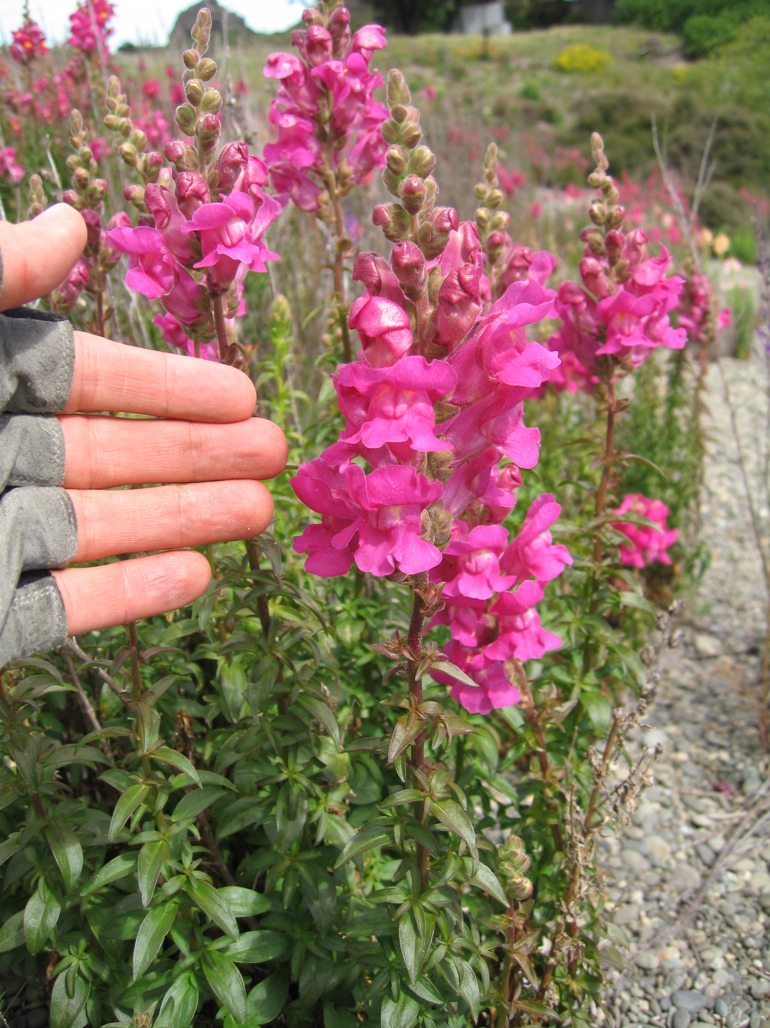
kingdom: Plantae
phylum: Tracheophyta
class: Magnoliopsida
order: Lamiales
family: Plantaginaceae
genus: Antirrhinum
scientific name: Antirrhinum majus
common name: Snapdragon
